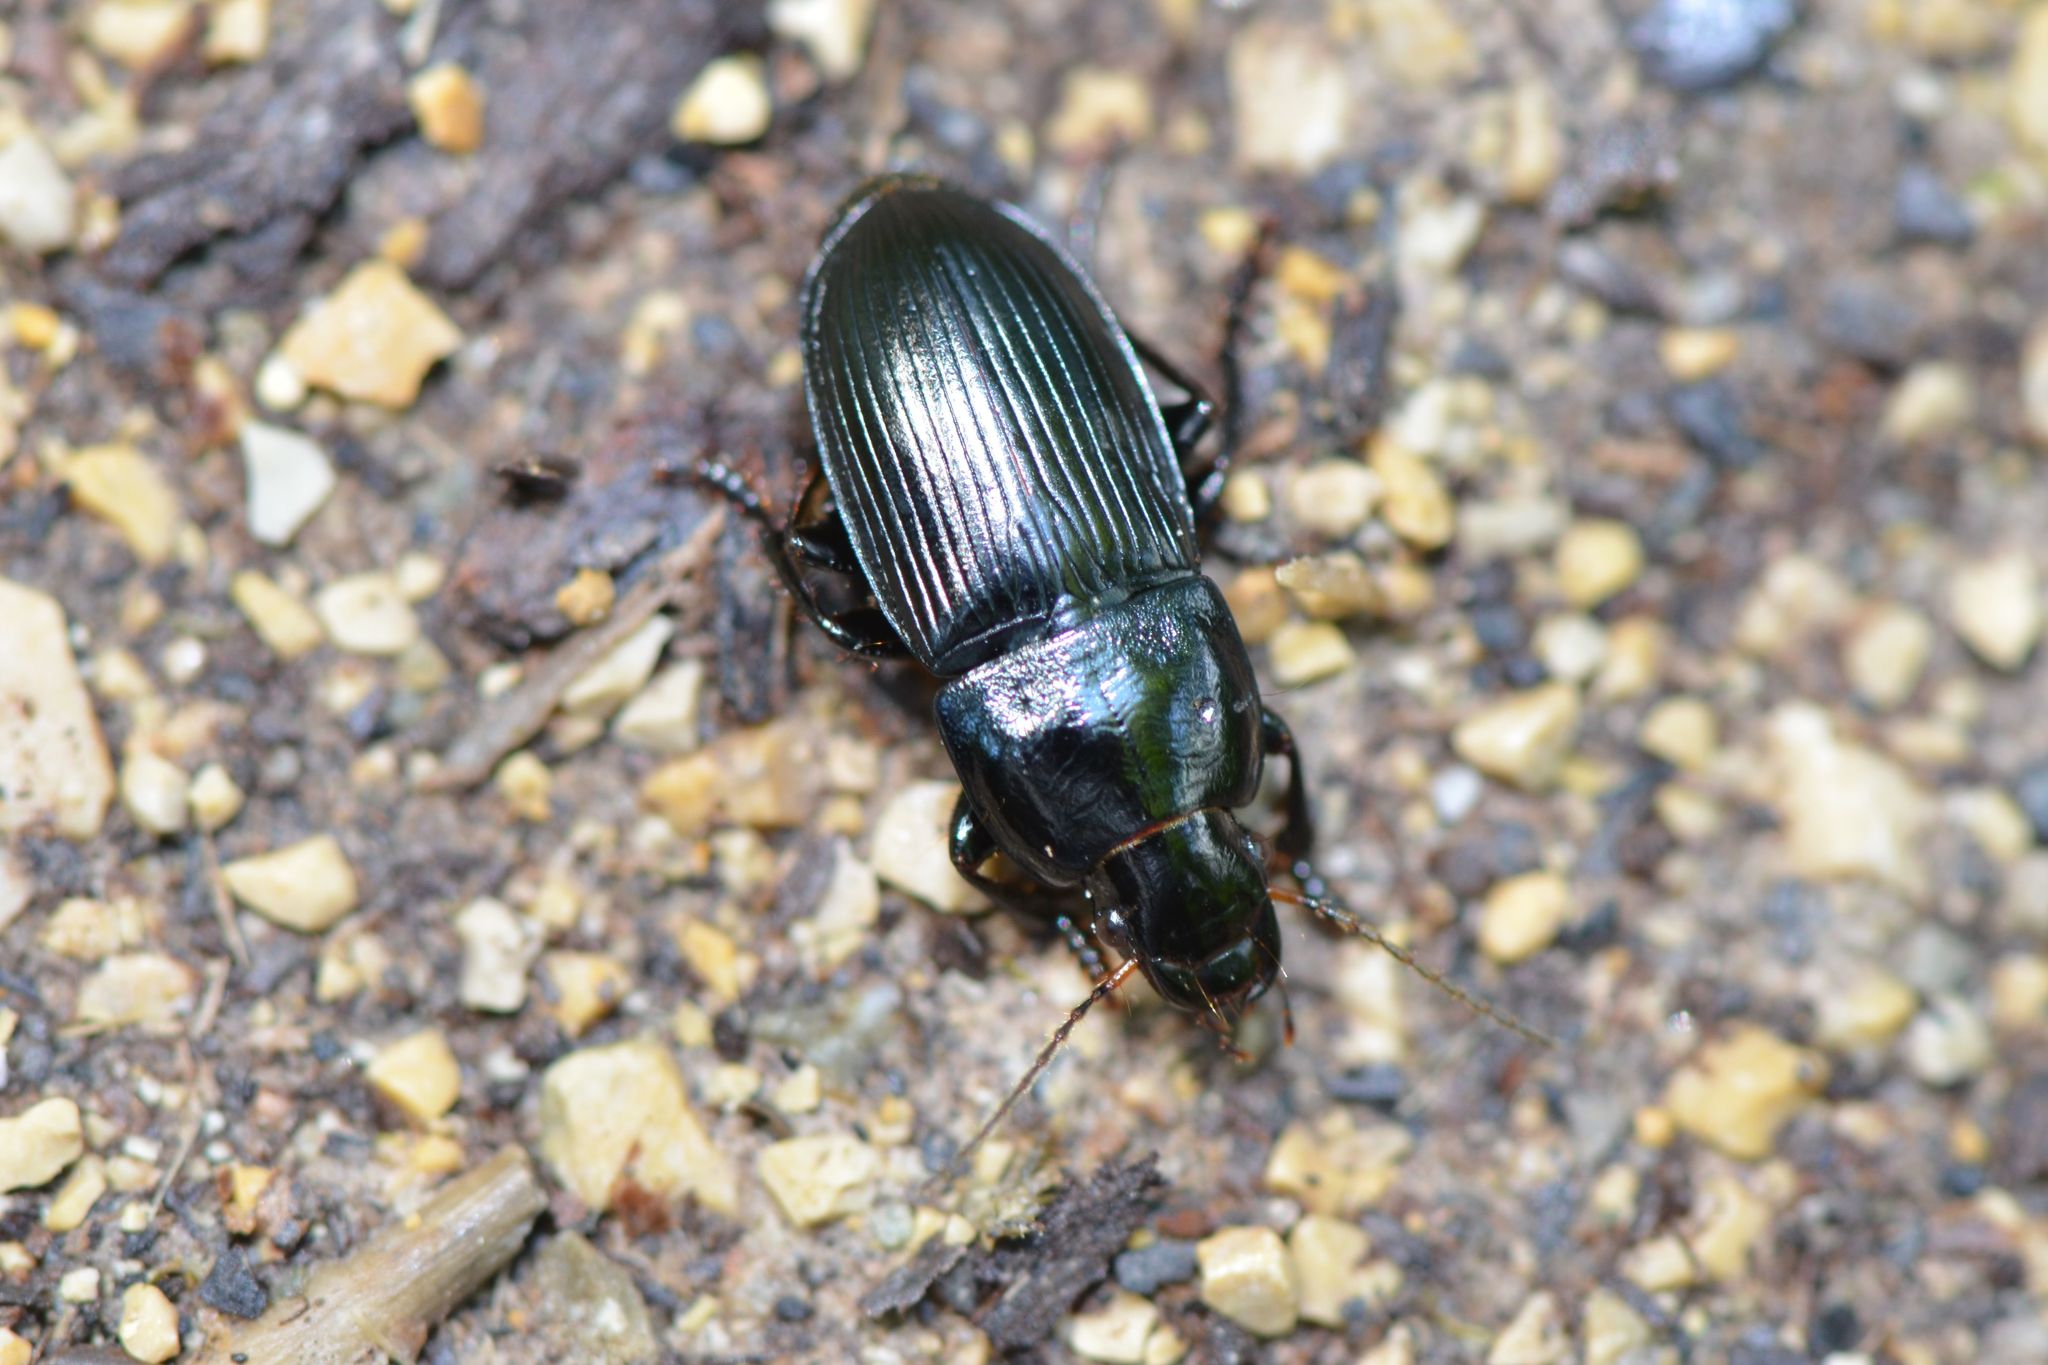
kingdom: Animalia
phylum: Arthropoda
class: Insecta
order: Coleoptera
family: Carabidae
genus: Harpalus
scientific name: Harpalus dimidiatus
